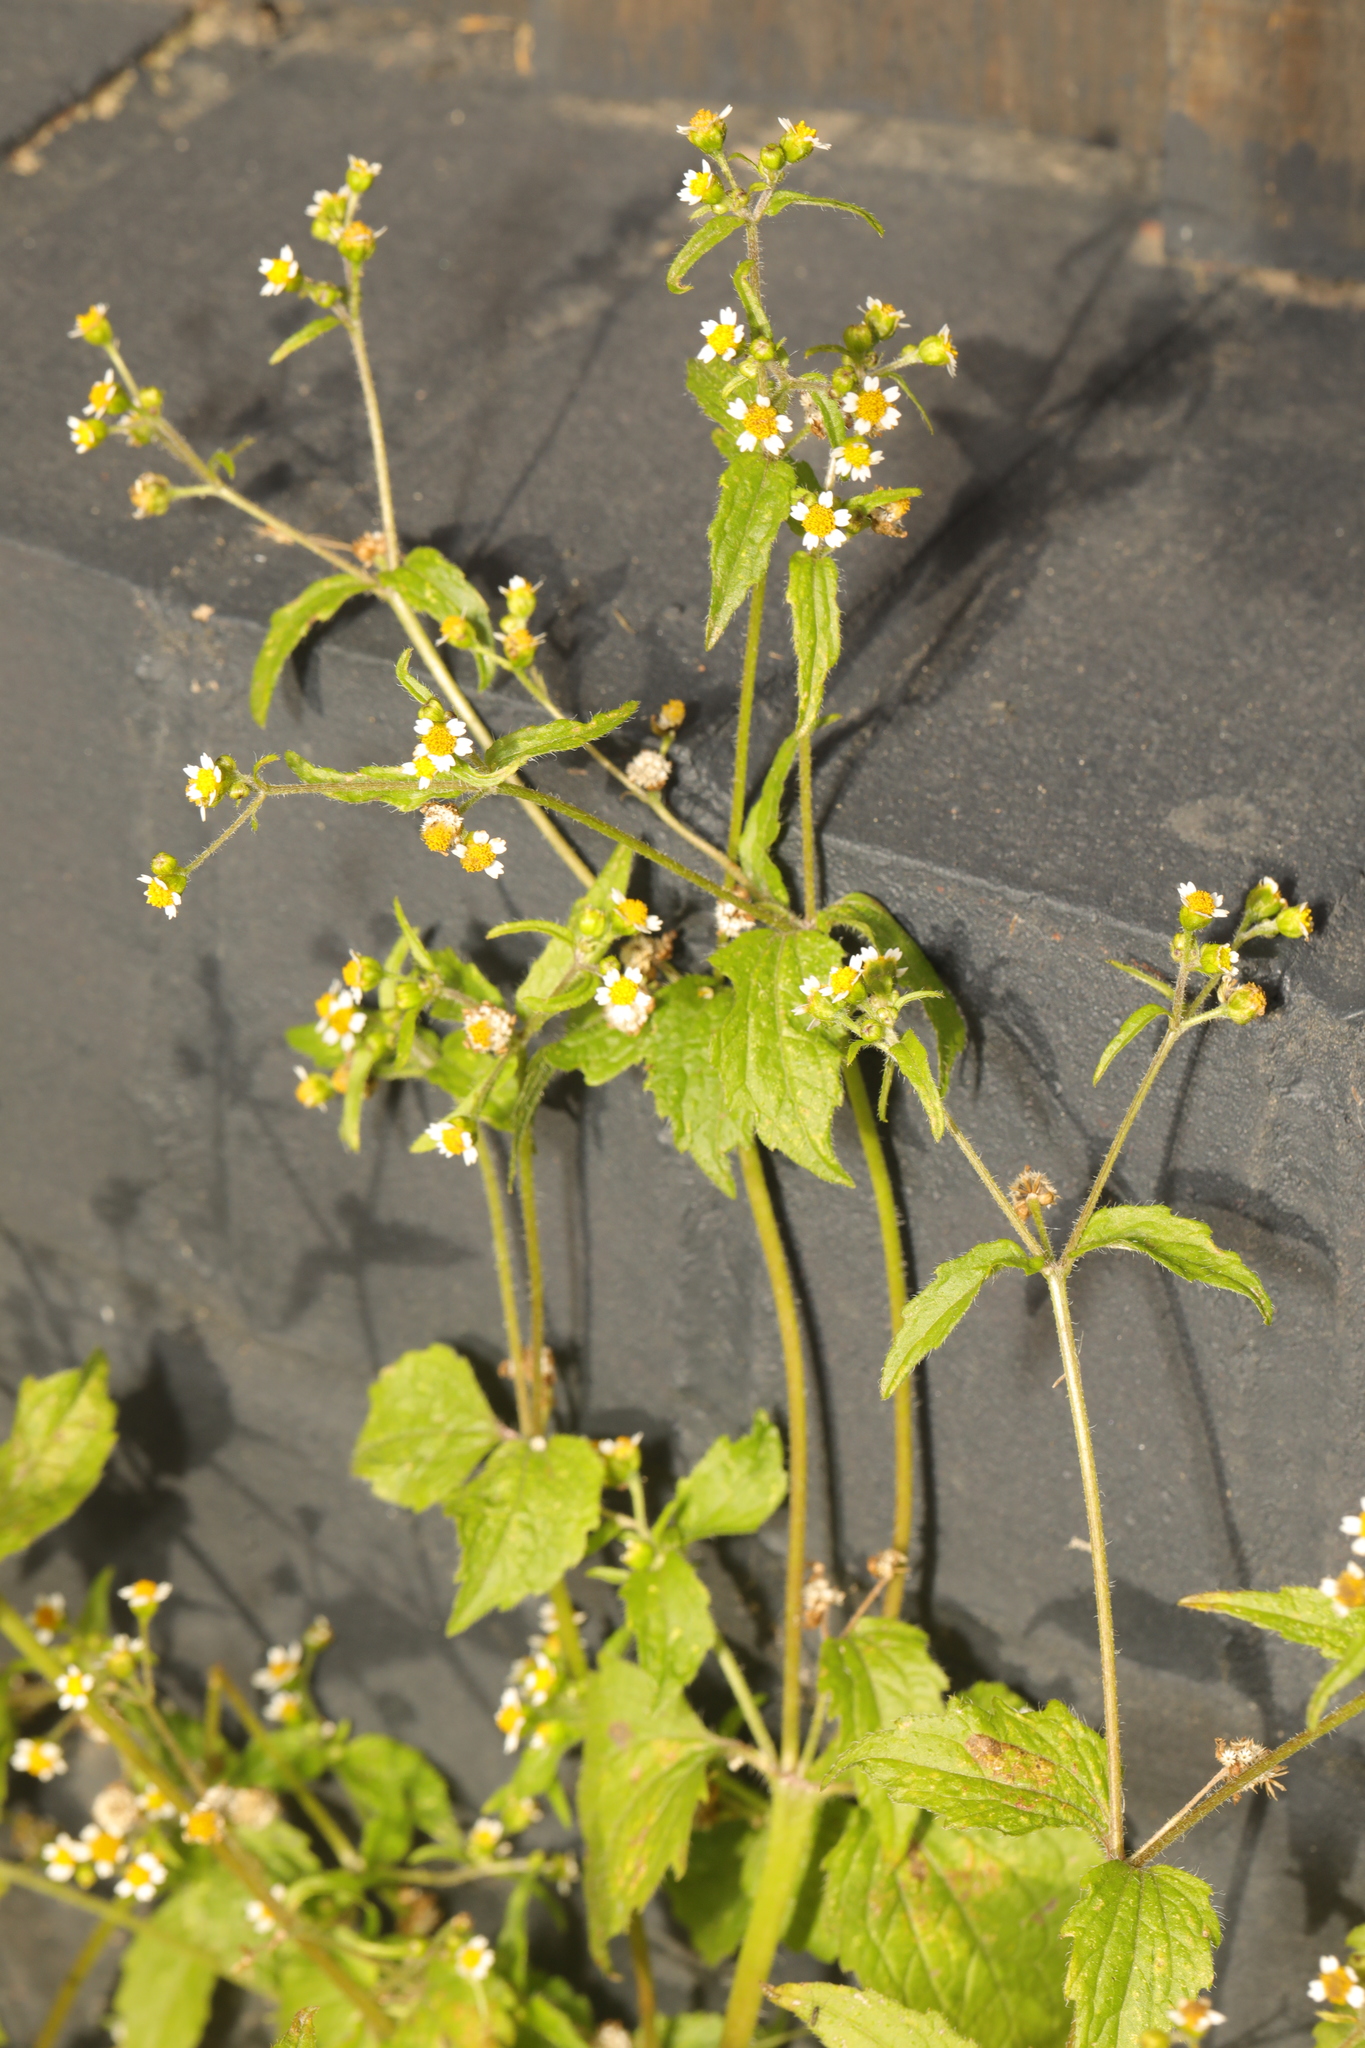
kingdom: Plantae
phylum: Tracheophyta
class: Magnoliopsida
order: Asterales
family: Asteraceae
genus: Galinsoga
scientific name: Galinsoga quadriradiata
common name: Shaggy soldier
